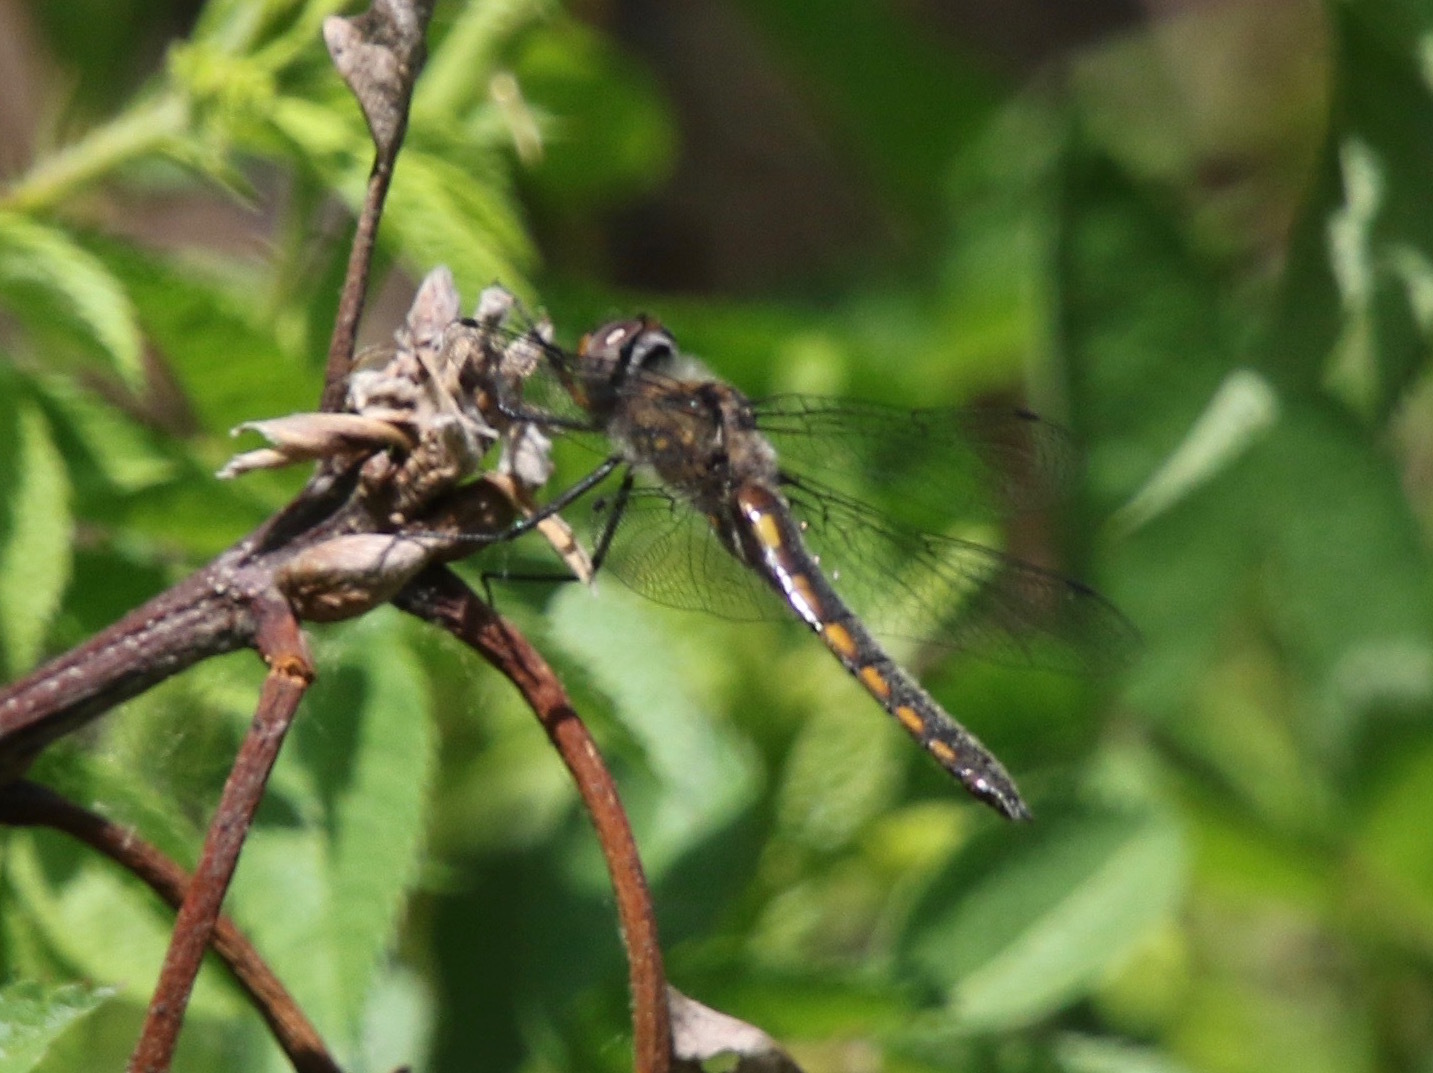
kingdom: Animalia
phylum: Arthropoda
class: Insecta
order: Odonata
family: Corduliidae
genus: Epitheca
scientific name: Epitheca cynosura
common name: Common baskettail
